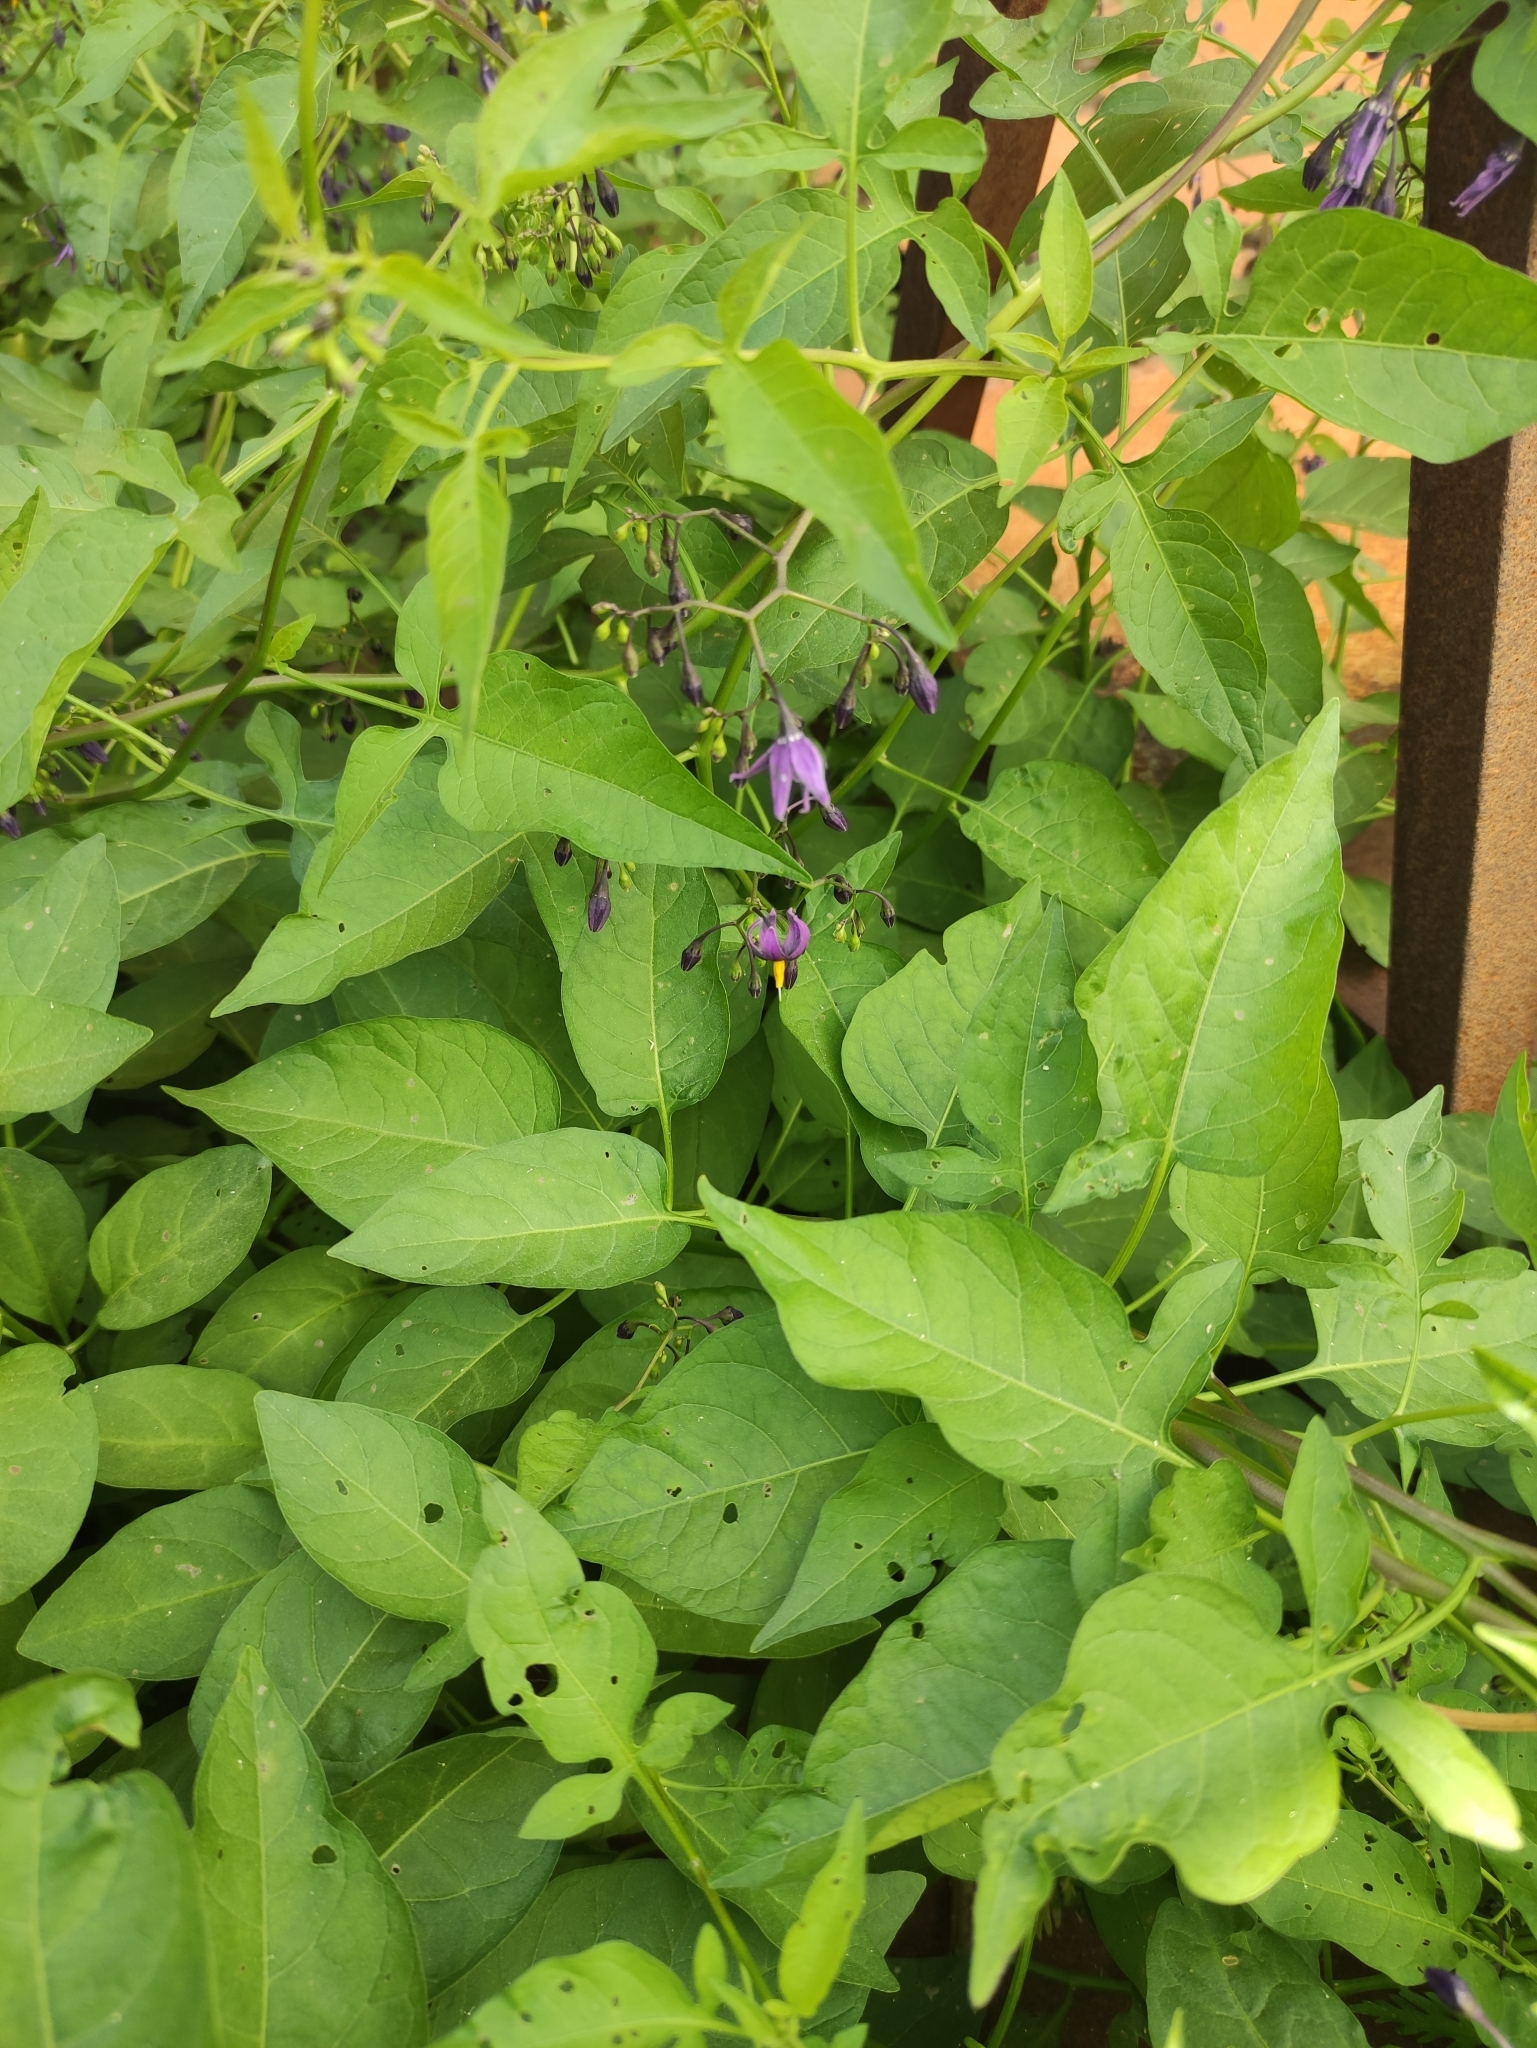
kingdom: Plantae
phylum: Tracheophyta
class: Magnoliopsida
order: Solanales
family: Solanaceae
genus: Solanum
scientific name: Solanum dulcamara
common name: Climbing nightshade
